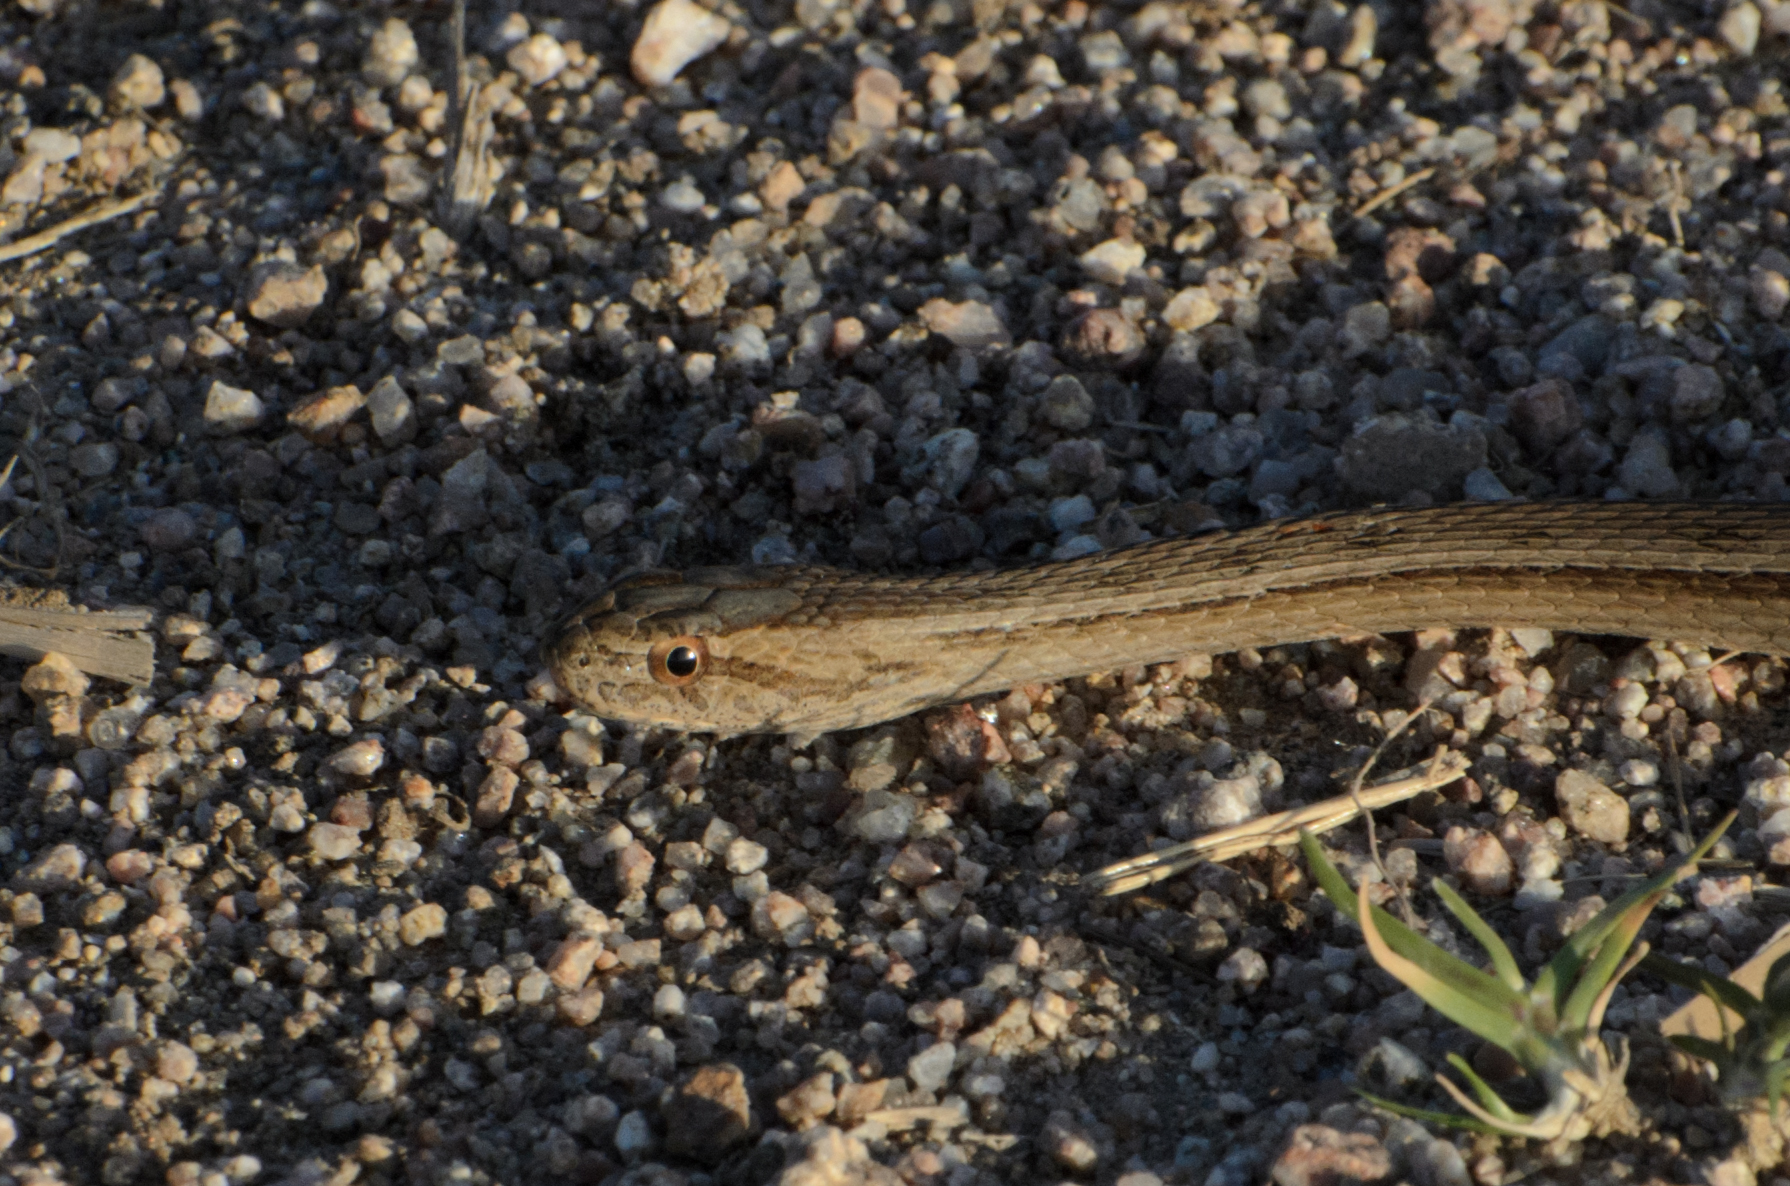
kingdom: Animalia
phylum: Chordata
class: Squamata
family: Colubridae
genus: Dryophylax
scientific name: Dryophylax
